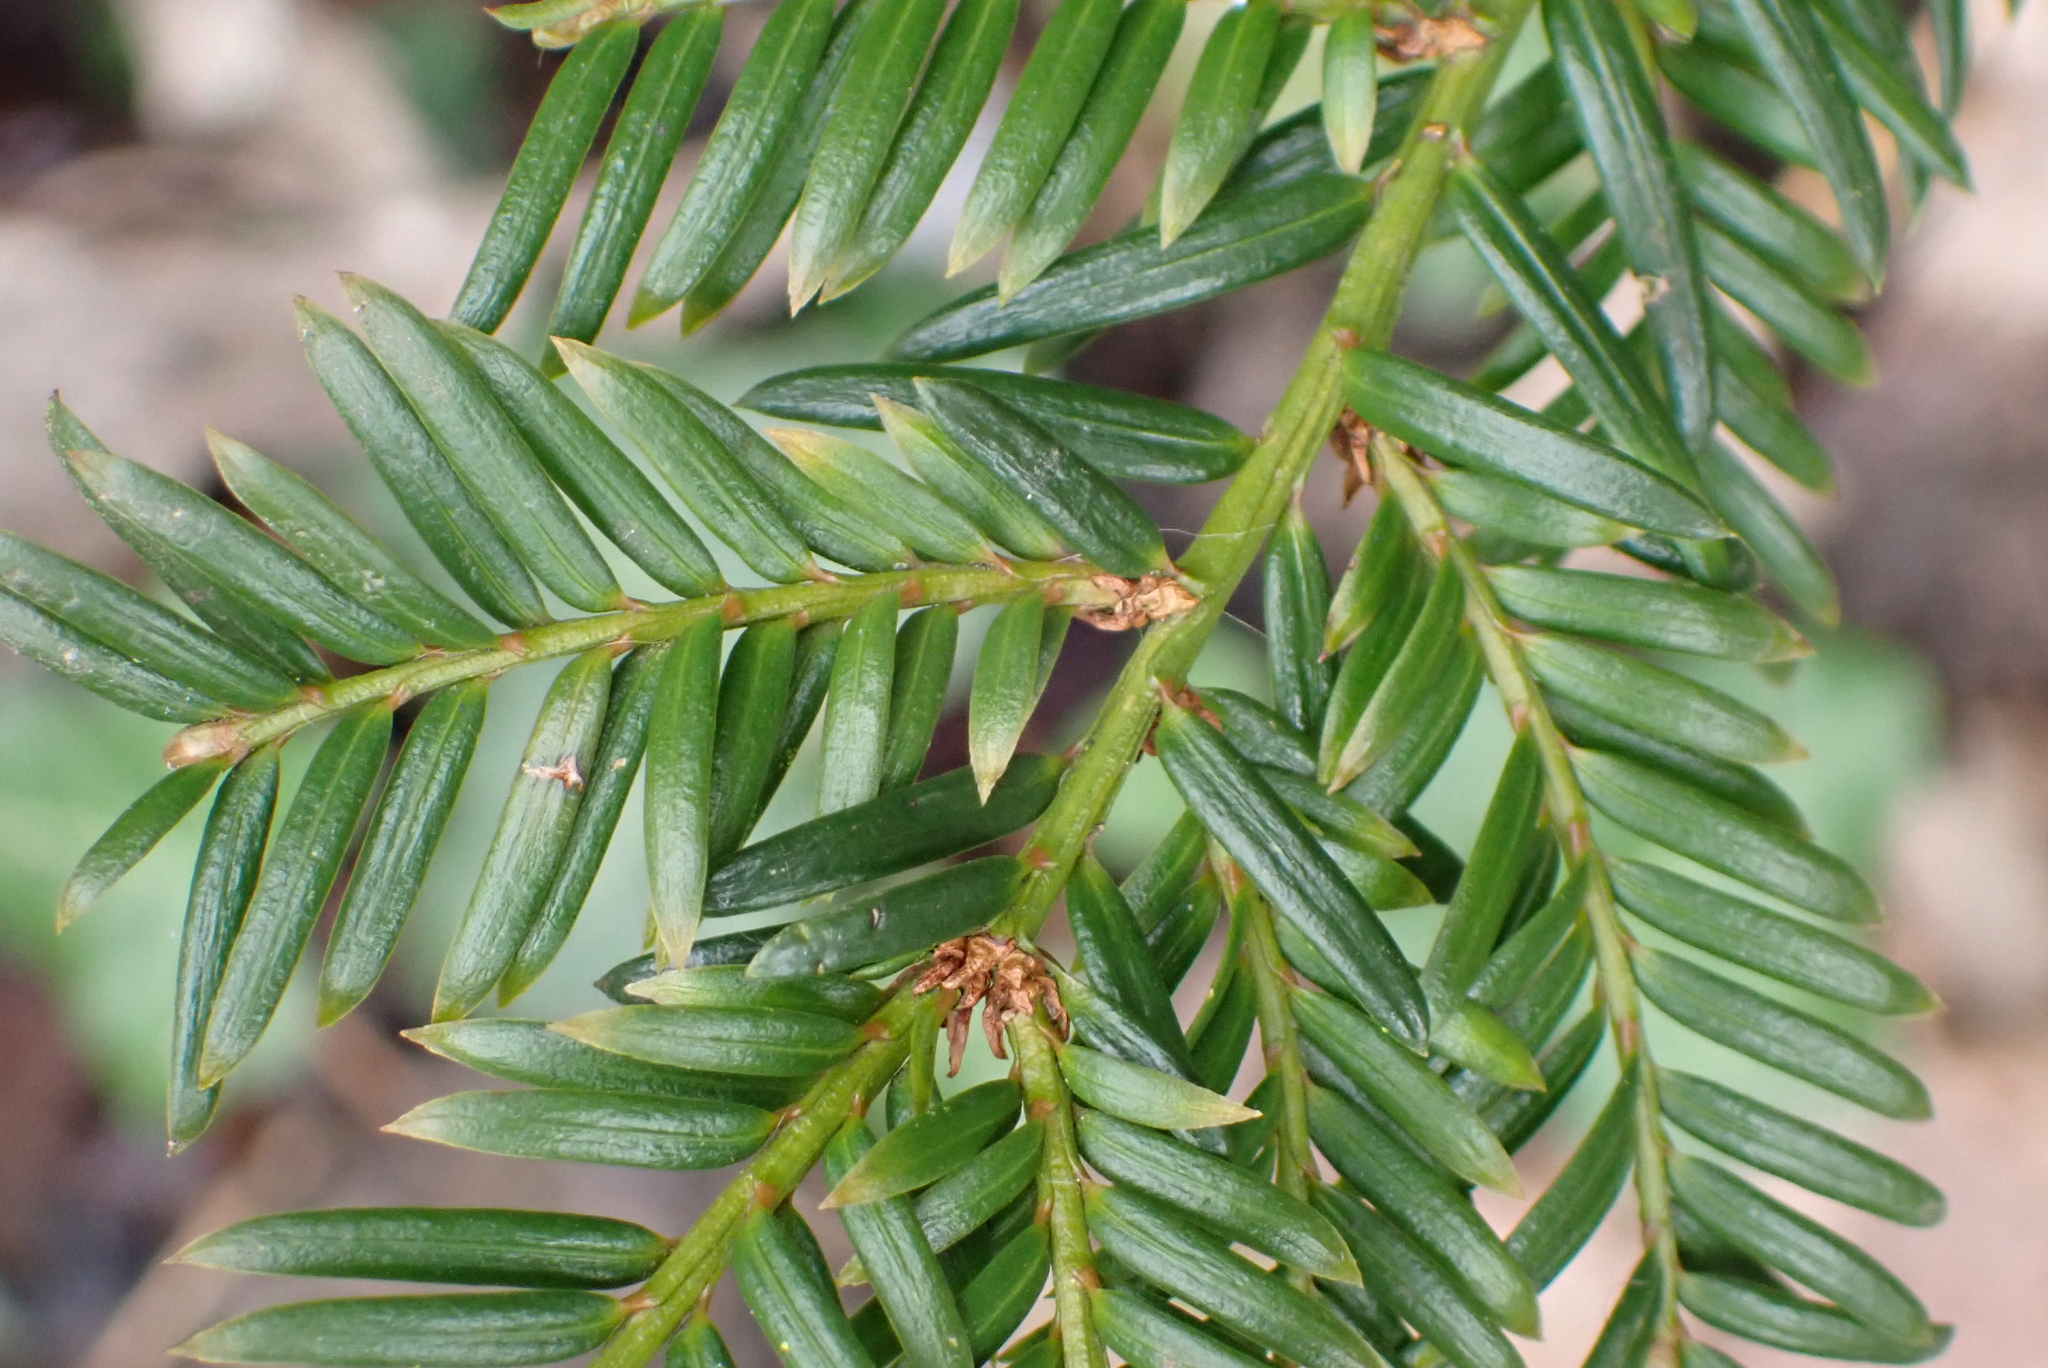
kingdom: Plantae
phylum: Tracheophyta
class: Pinopsida
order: Pinales
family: Taxaceae
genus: Taxus
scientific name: Taxus baccata
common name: Yew
